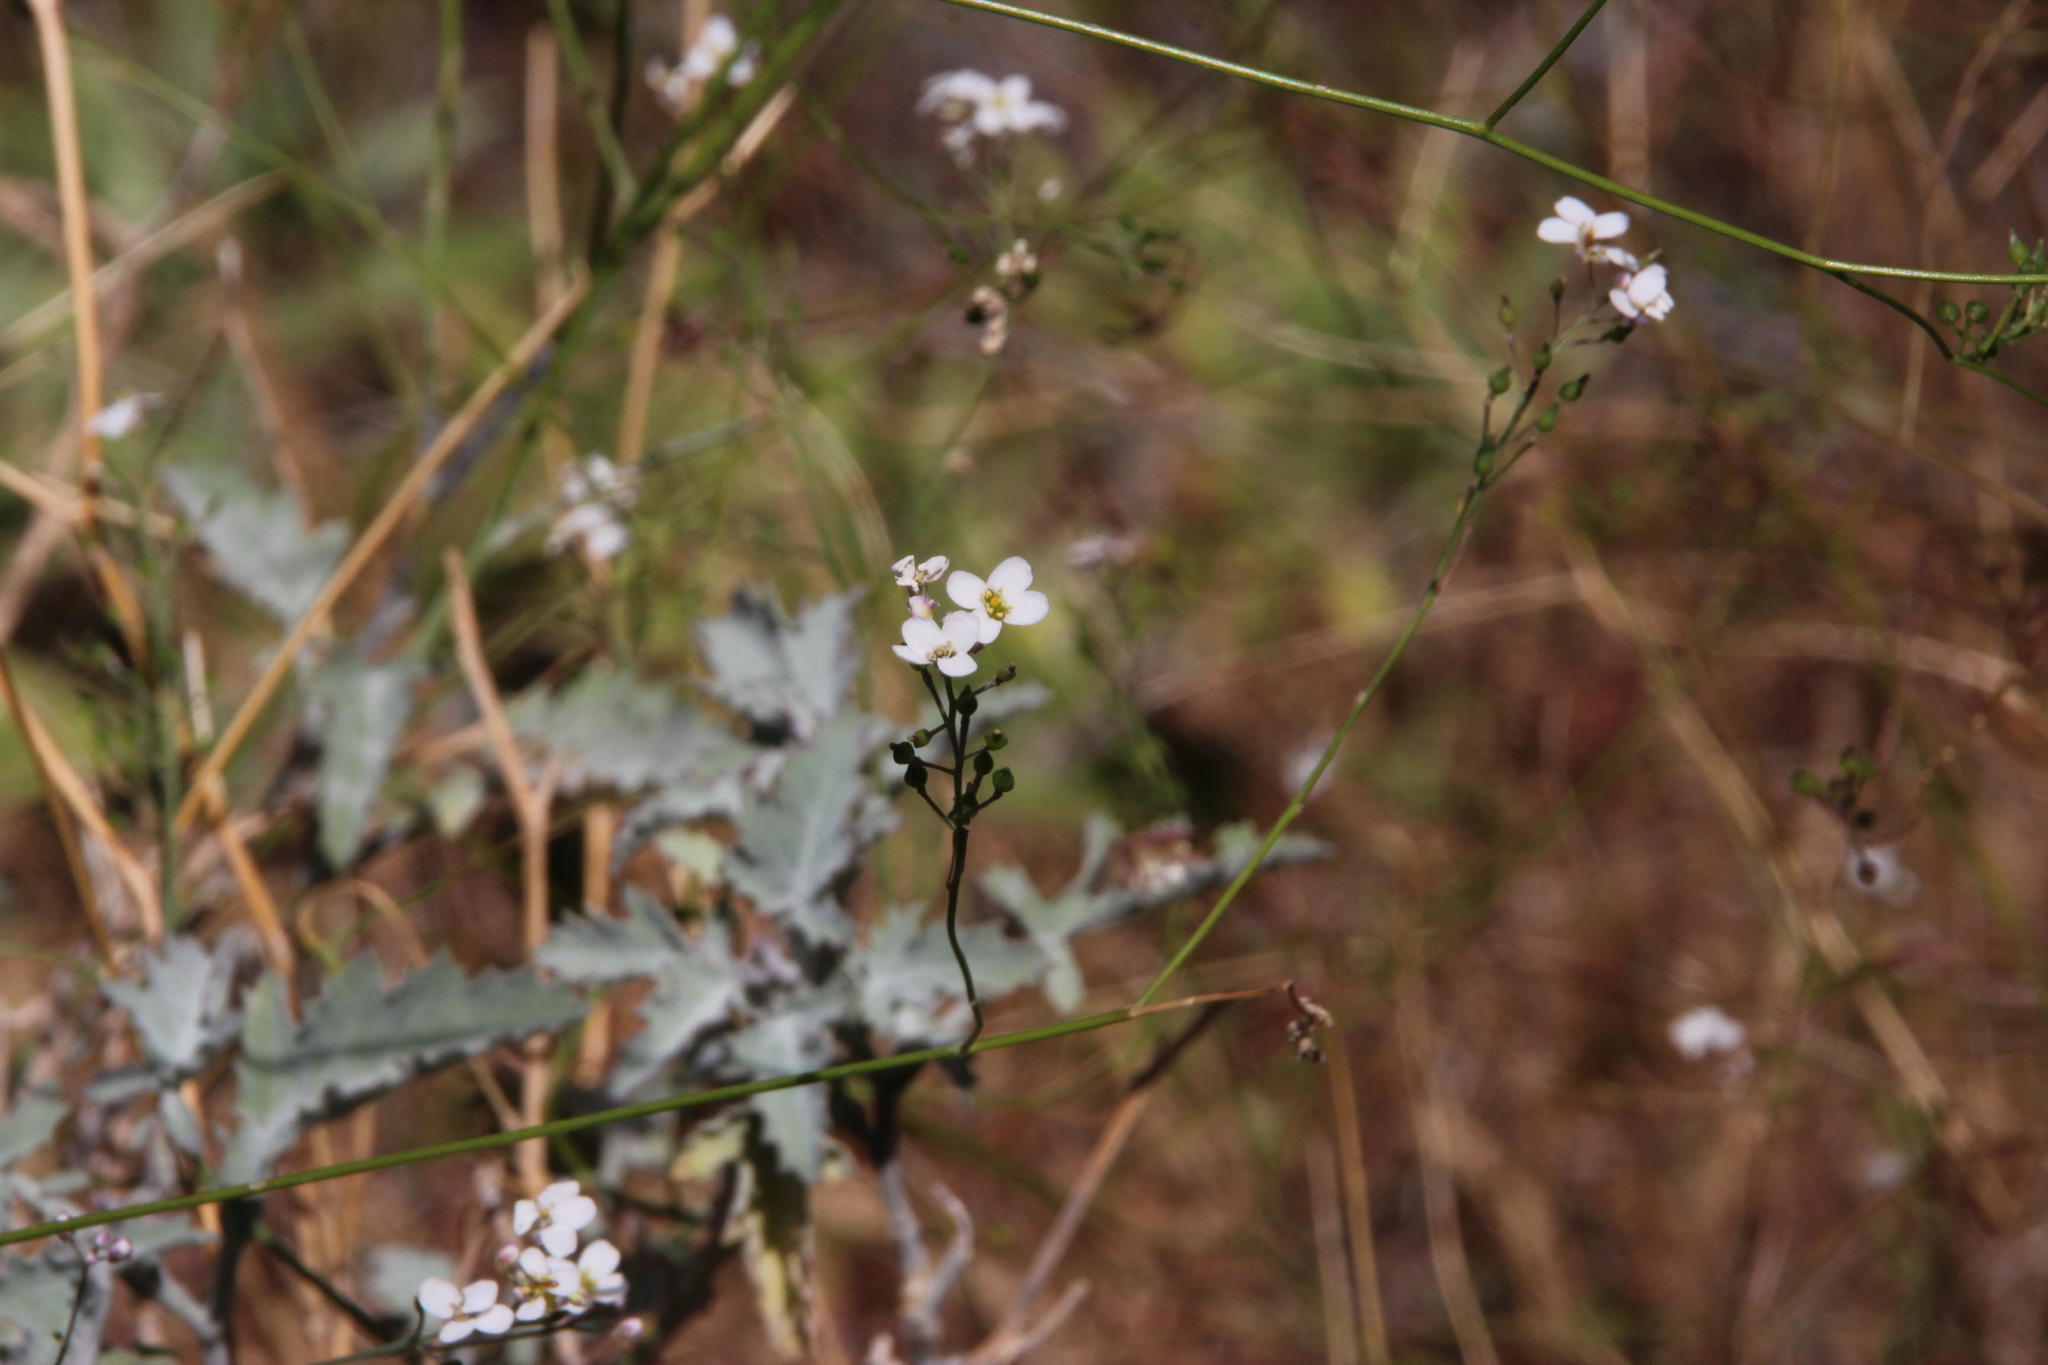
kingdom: Plantae
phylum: Tracheophyta
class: Magnoliopsida
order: Brassicales
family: Brassicaceae
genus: Crambe
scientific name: Crambe fruticosa
